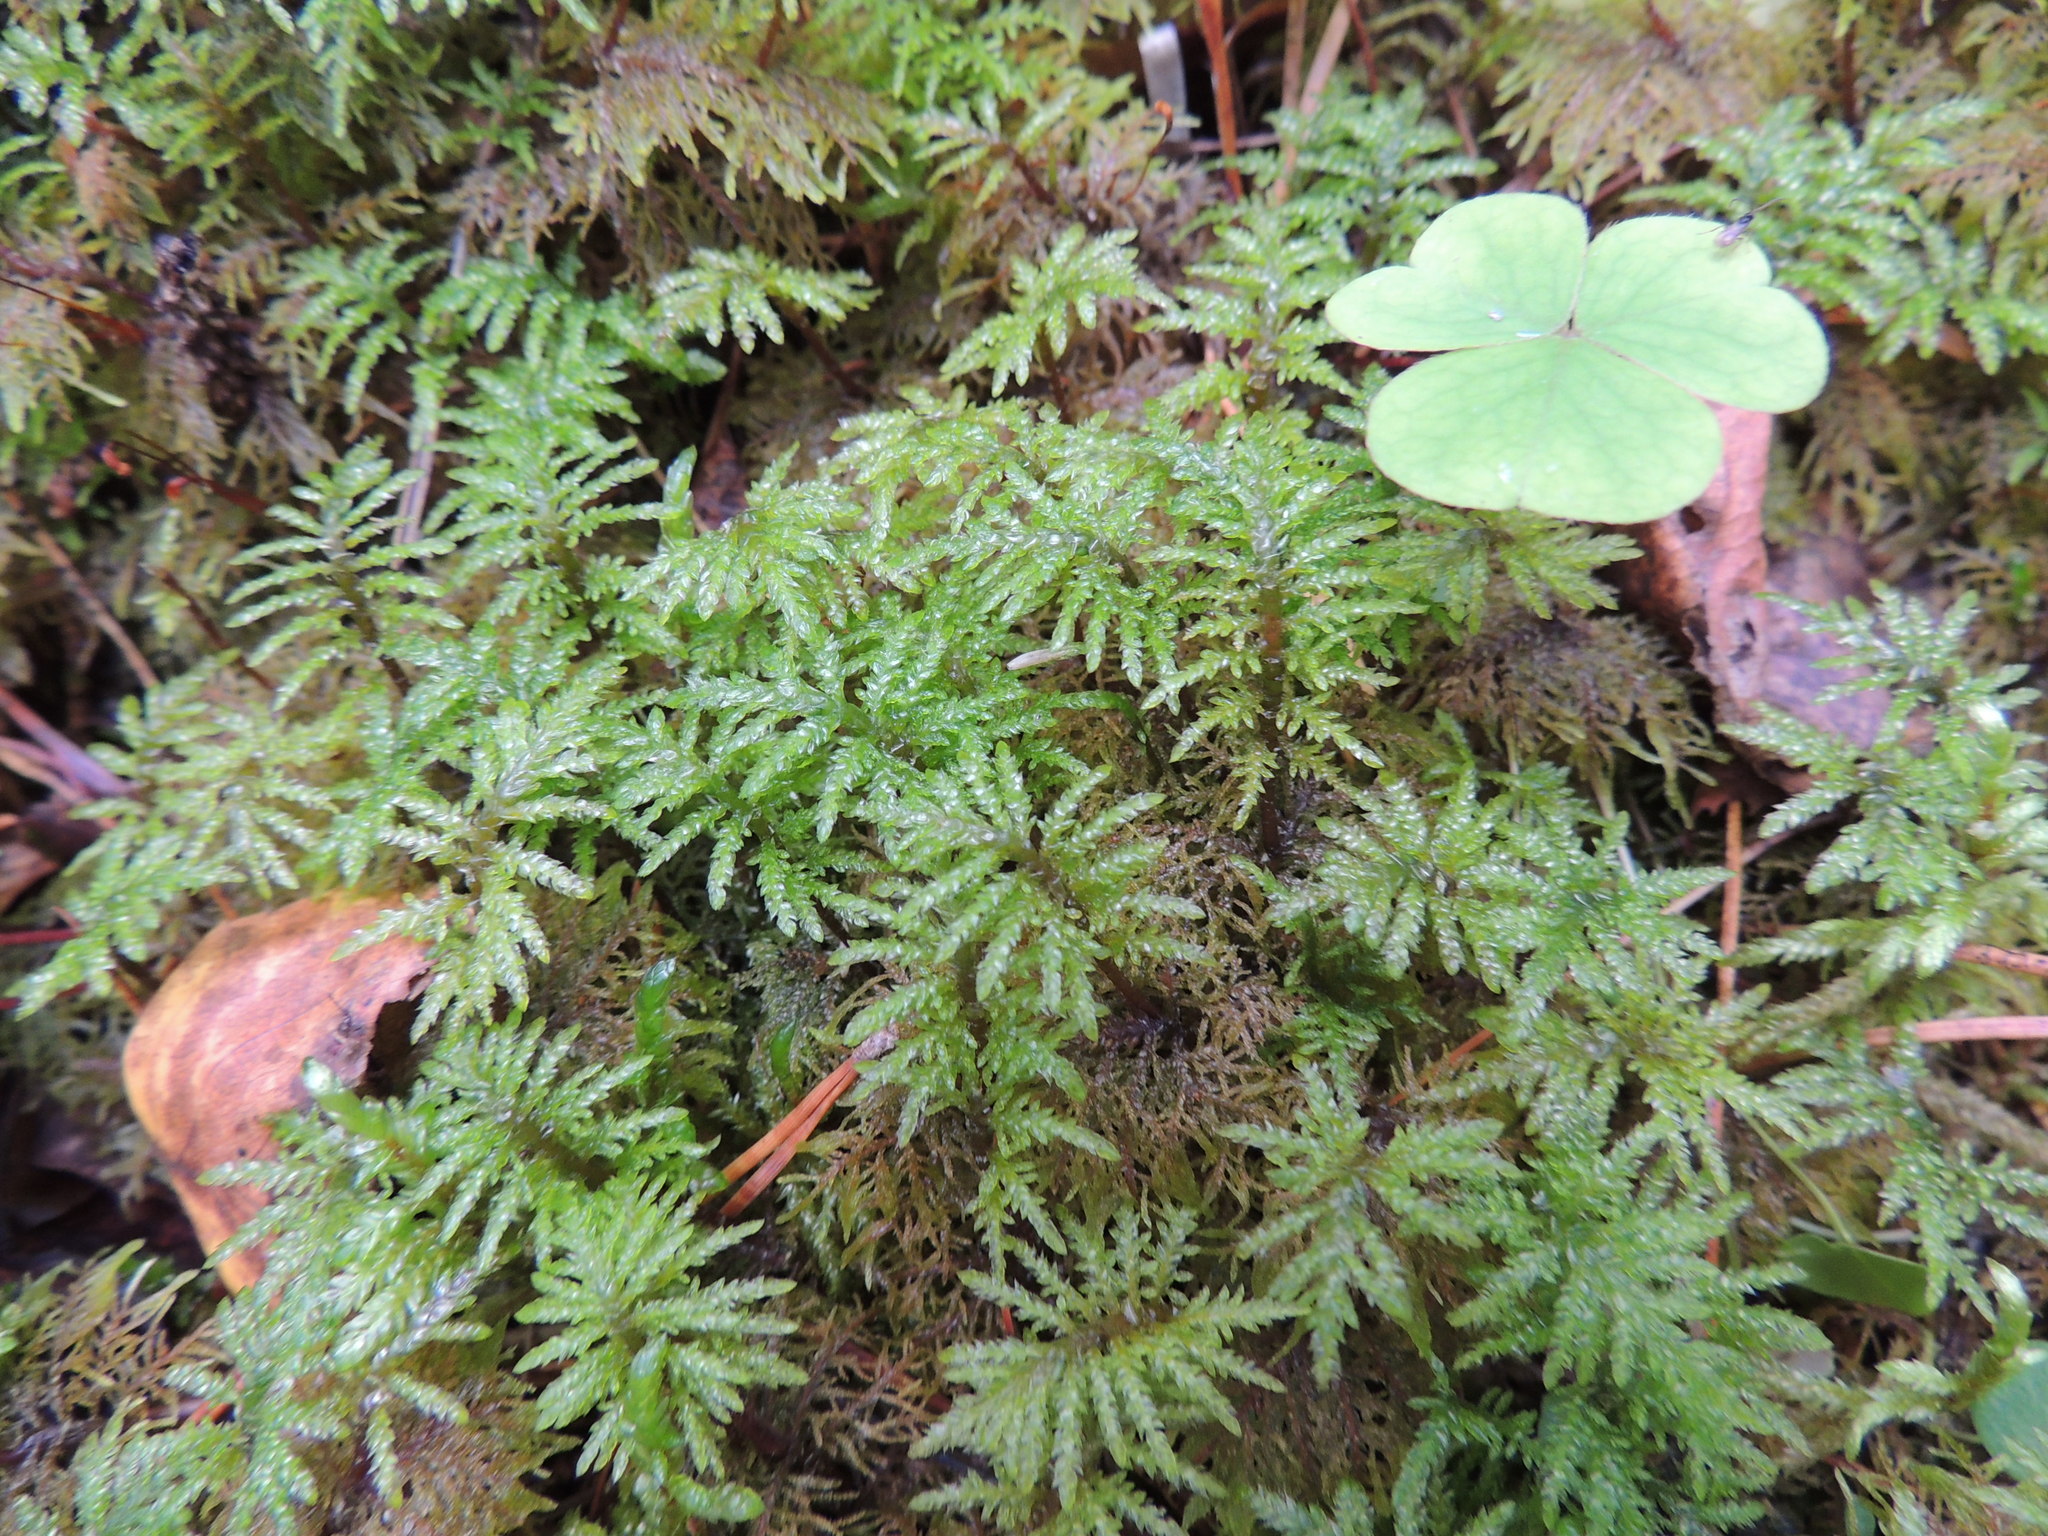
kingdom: Plantae
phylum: Bryophyta
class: Bryopsida
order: Hypnales
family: Hylocomiaceae
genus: Hylocomium
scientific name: Hylocomium splendens
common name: Stairstep moss
